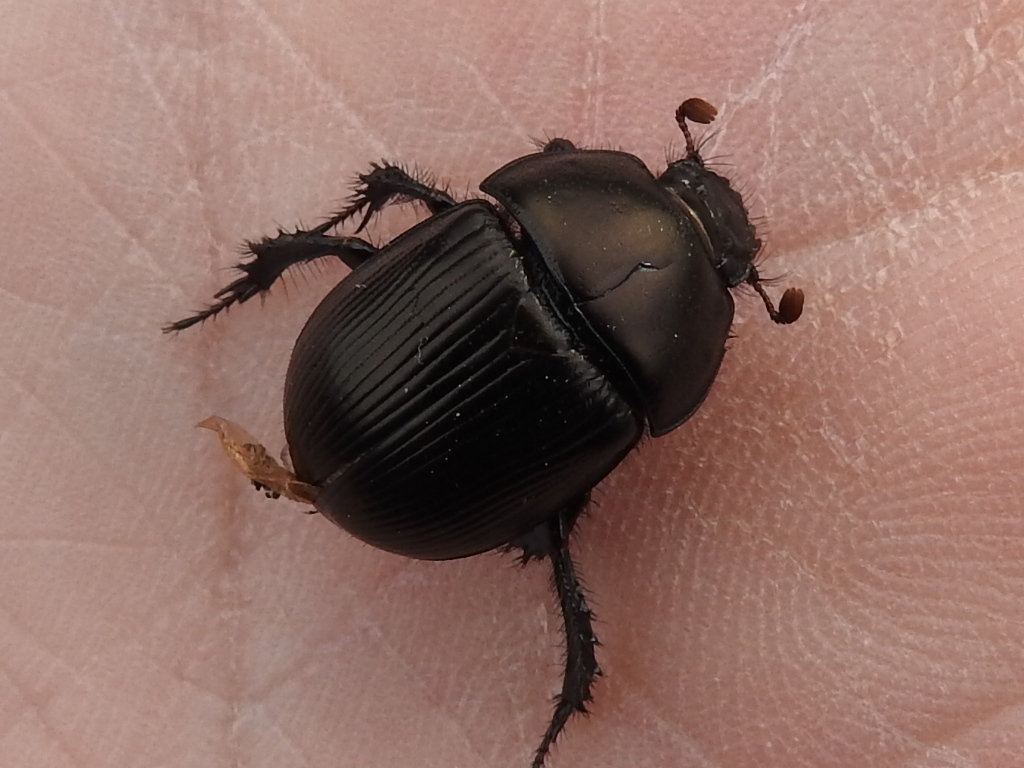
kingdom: Animalia
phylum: Arthropoda
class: Insecta
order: Coleoptera
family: Geotrupidae
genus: Geohowdenius
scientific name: Geohowdenius opacus
